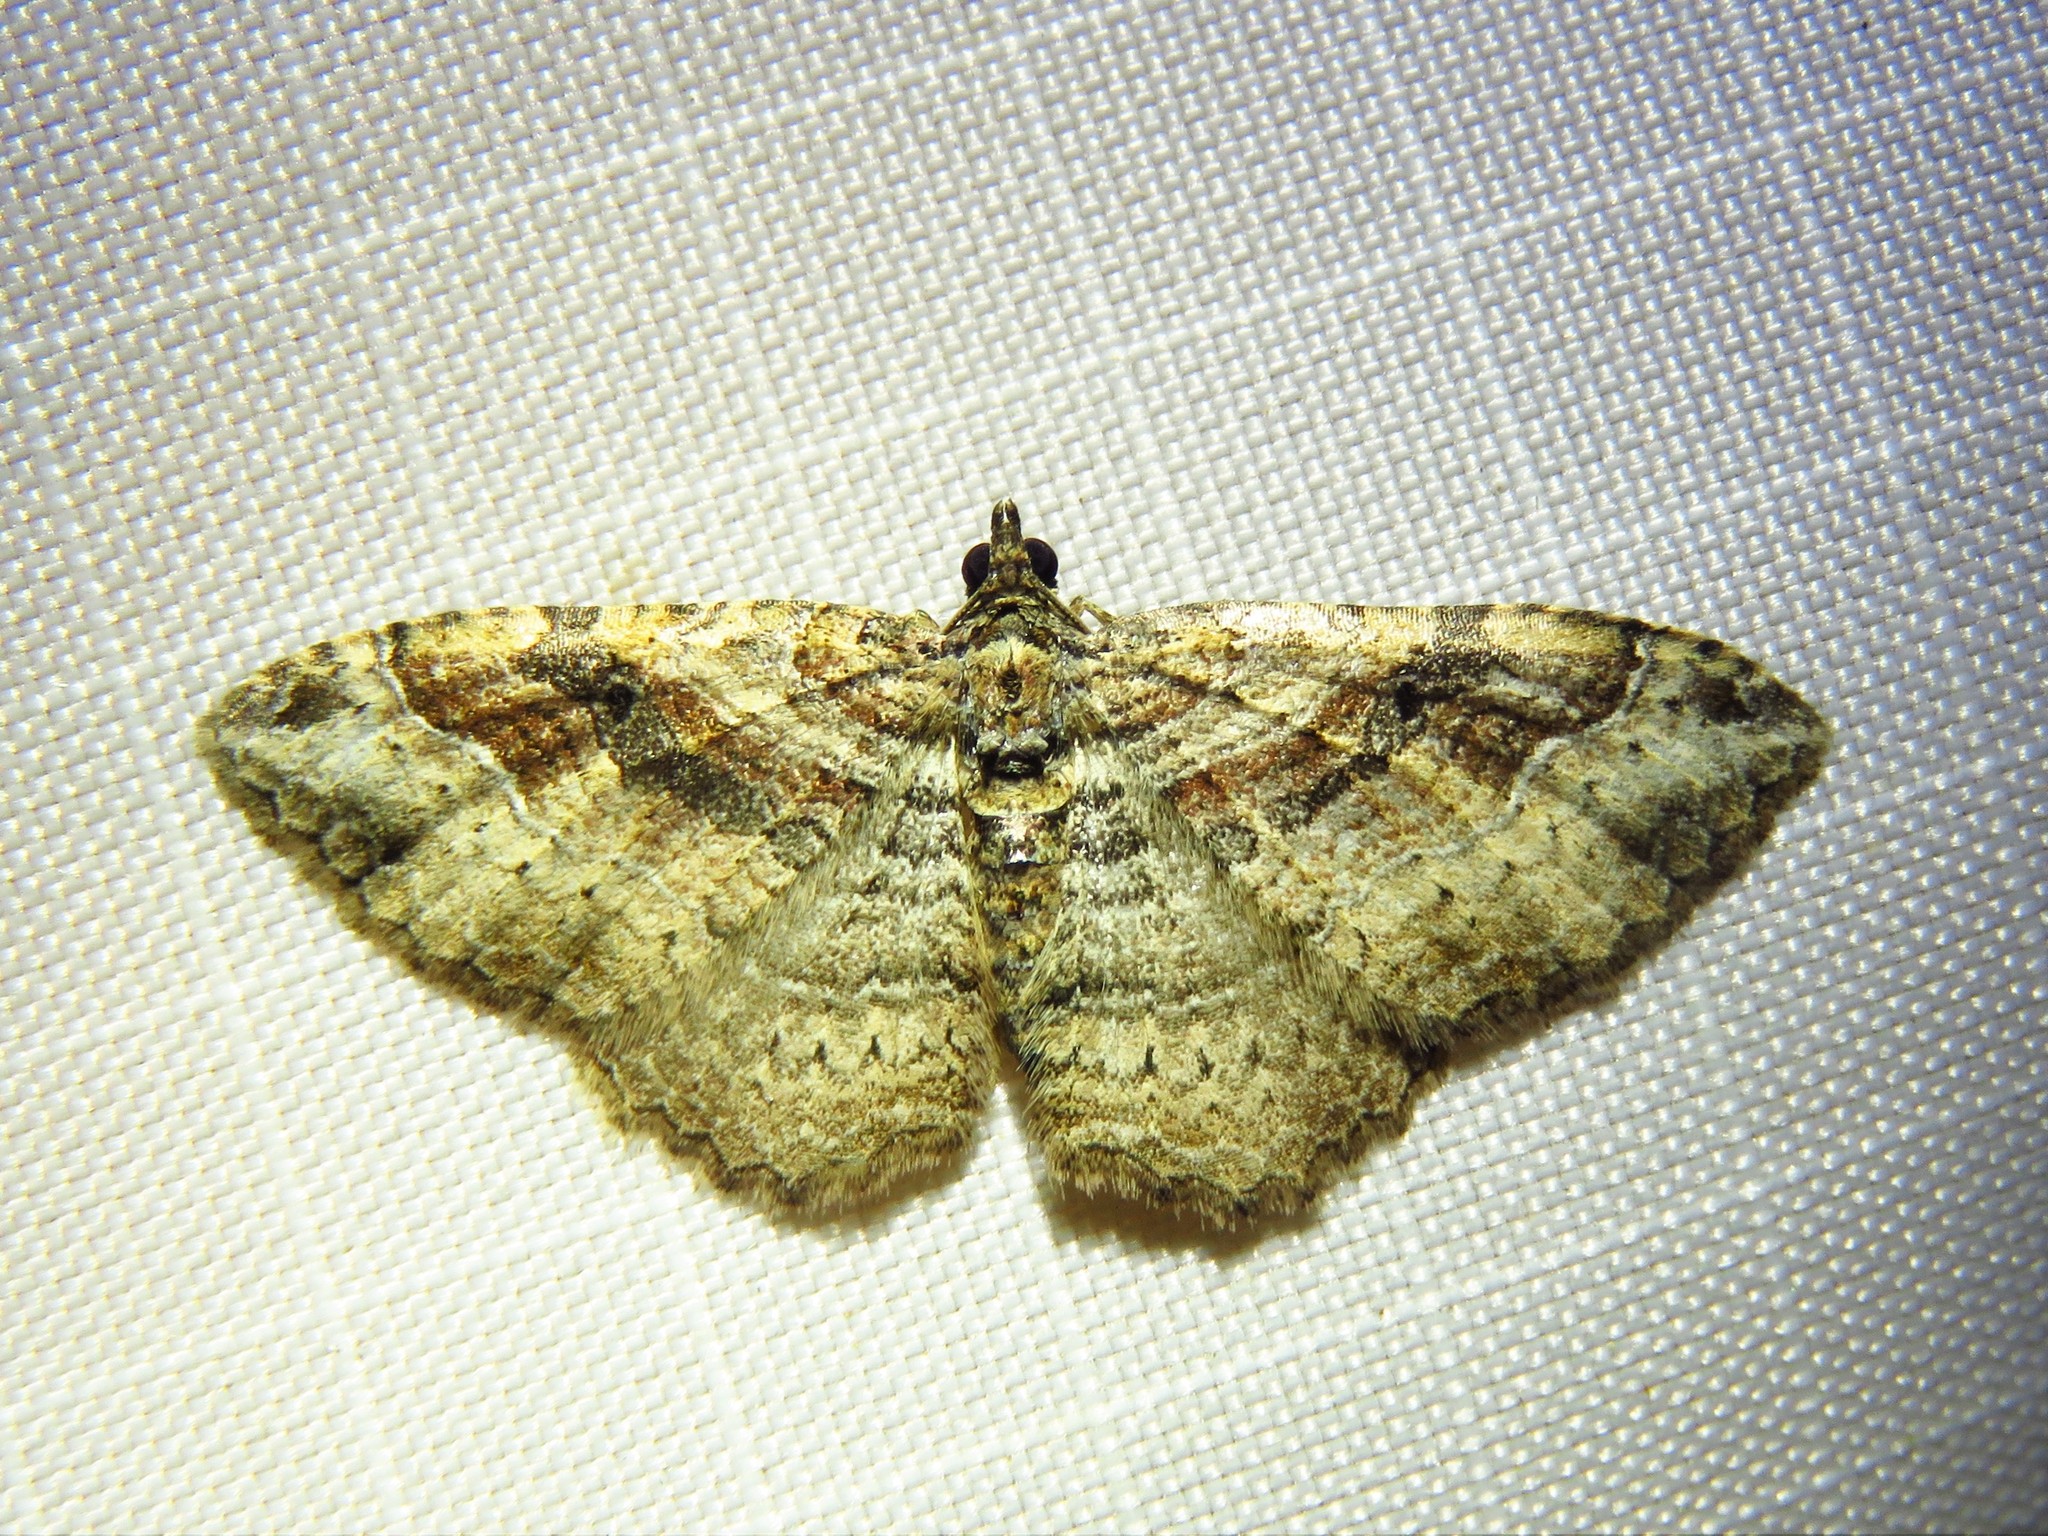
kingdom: Animalia
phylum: Arthropoda
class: Insecta
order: Lepidoptera
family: Geometridae
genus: Costaconvexa
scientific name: Costaconvexa centrostrigaria
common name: Bent-line carpet
